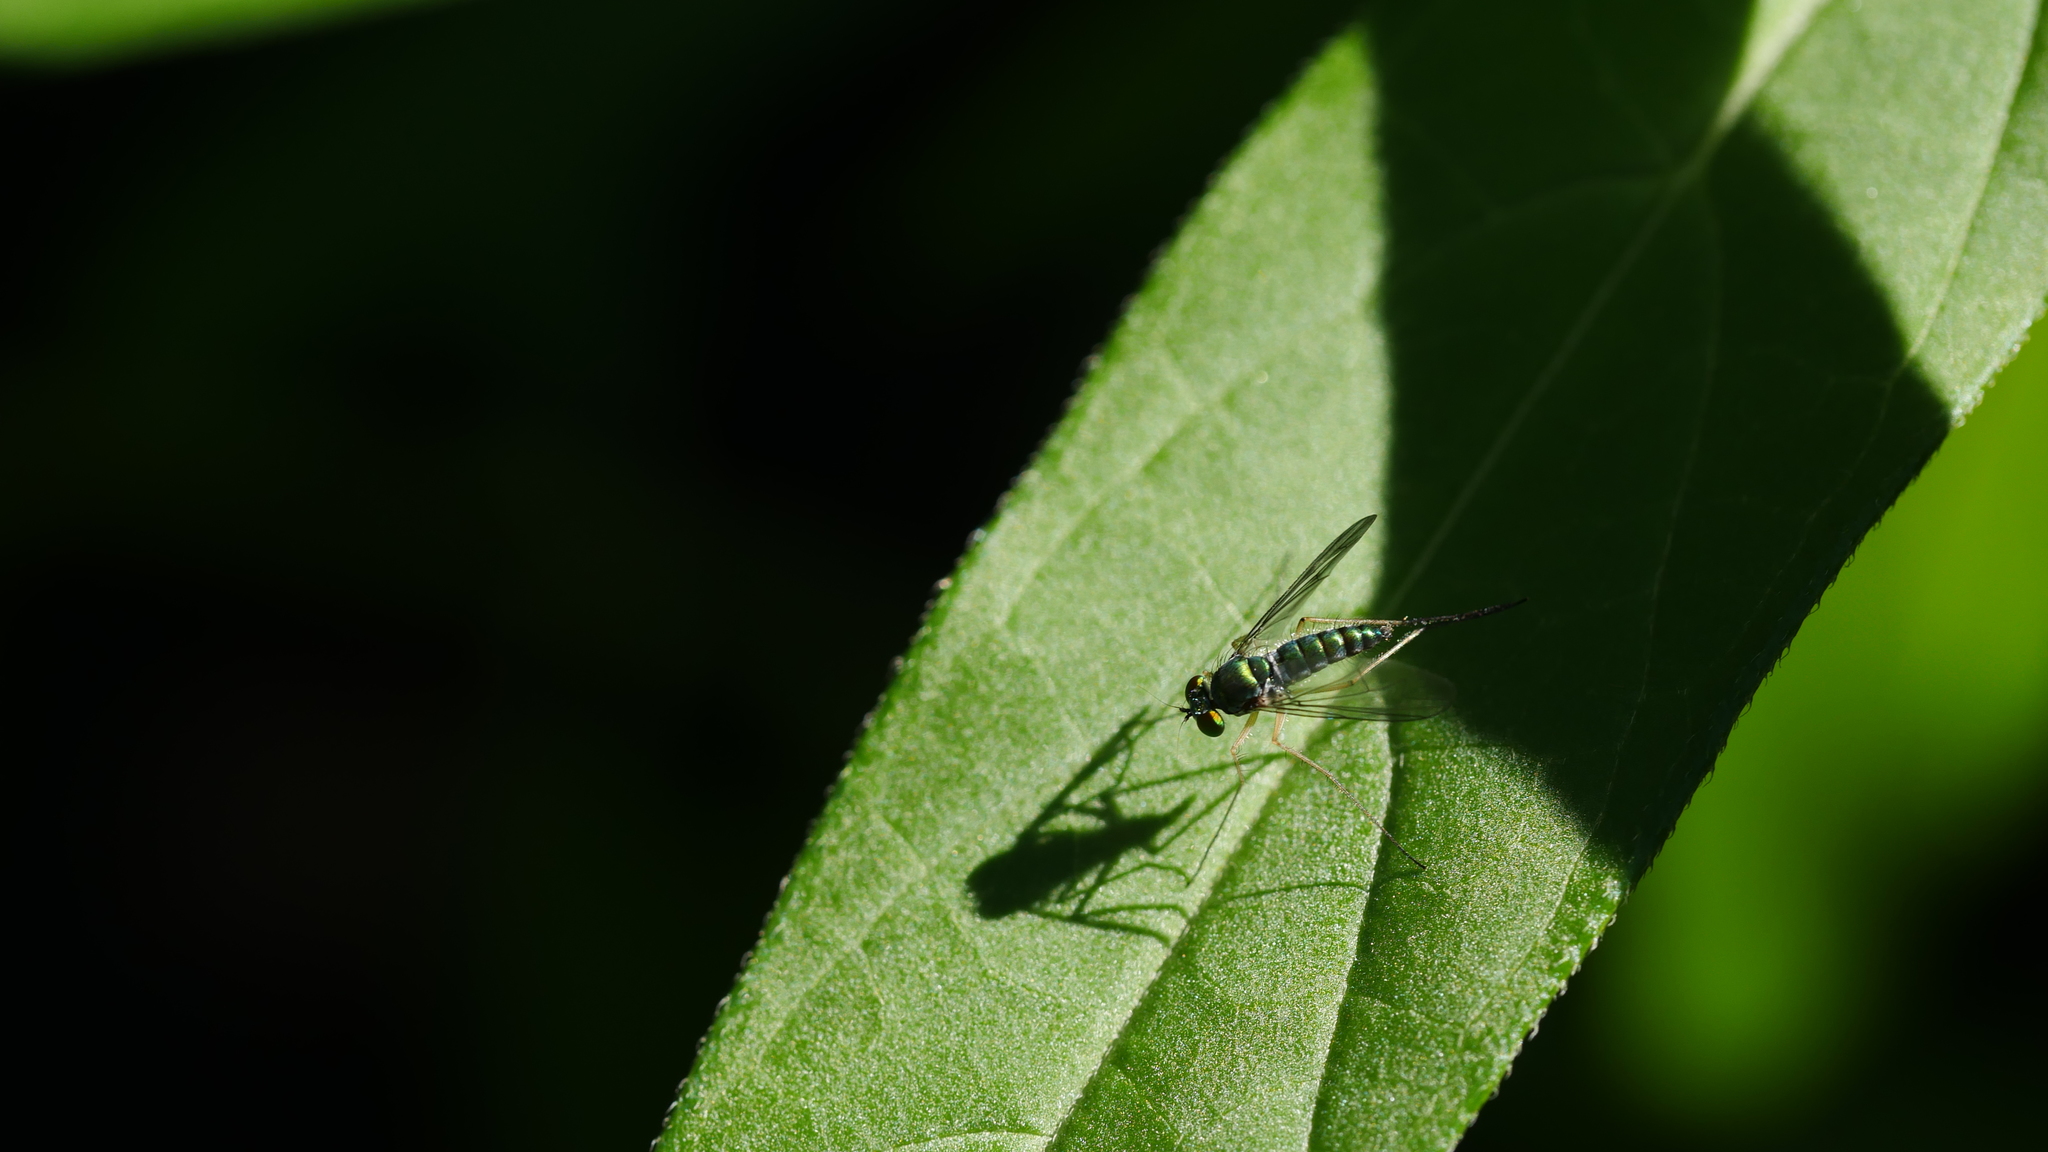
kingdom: Animalia
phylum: Arthropoda
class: Insecta
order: Diptera
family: Dolichopodidae
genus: Condylostylus
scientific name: Condylostylus
